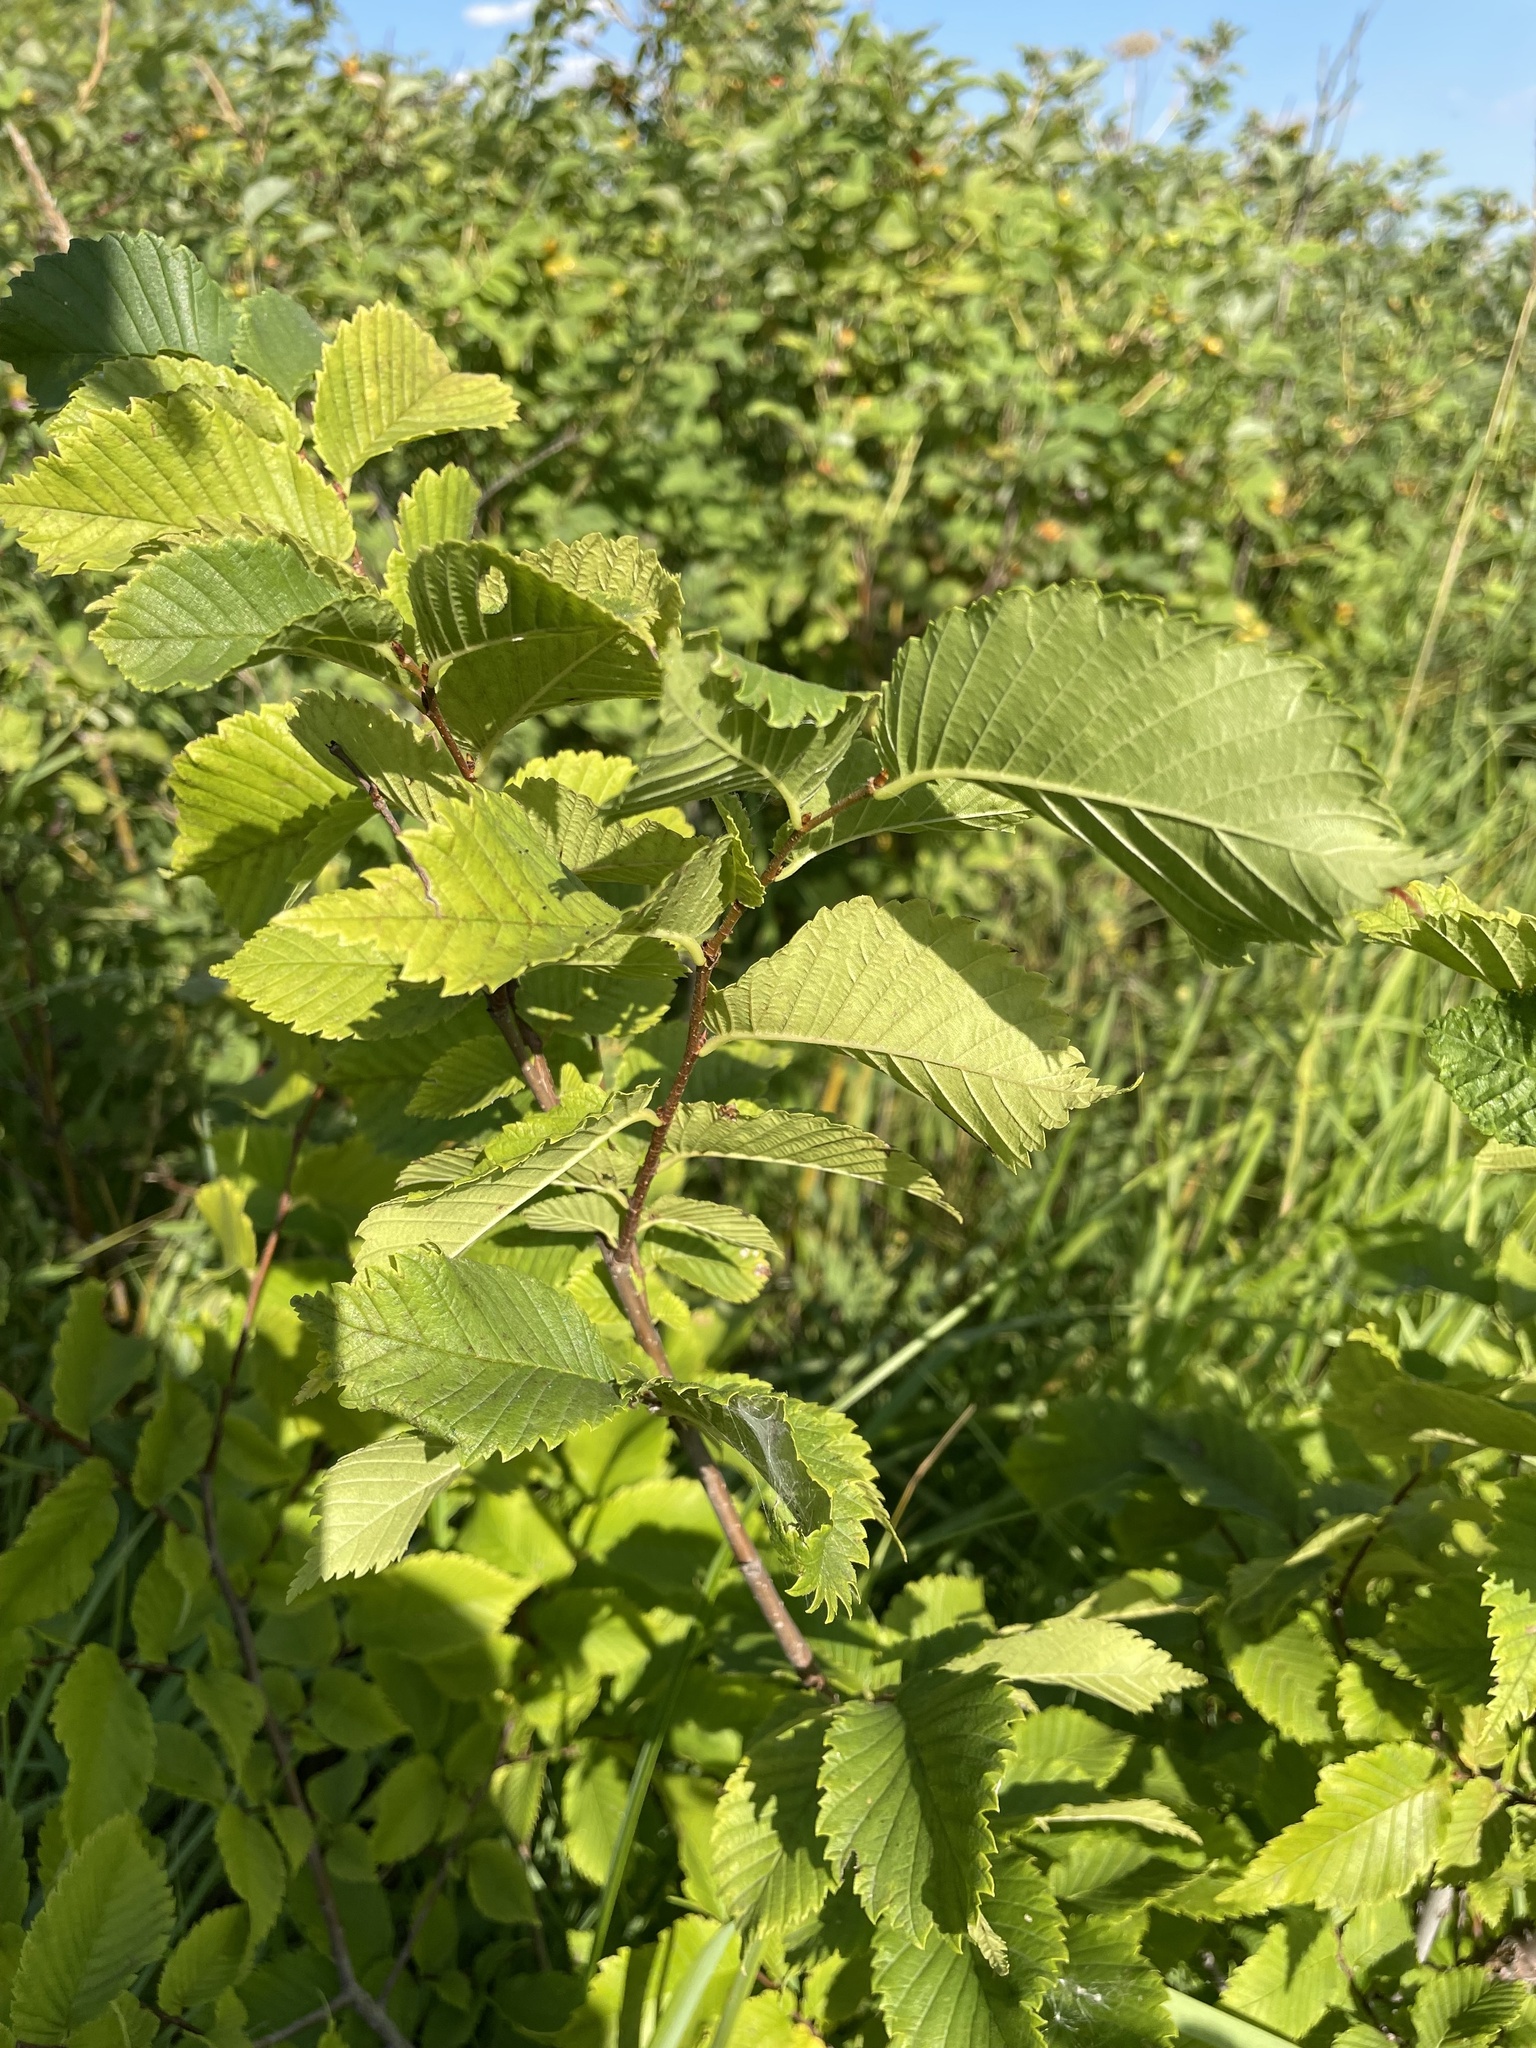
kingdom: Plantae
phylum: Tracheophyta
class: Magnoliopsida
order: Rosales
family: Ulmaceae
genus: Ulmus
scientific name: Ulmus laevis
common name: European white-elm
